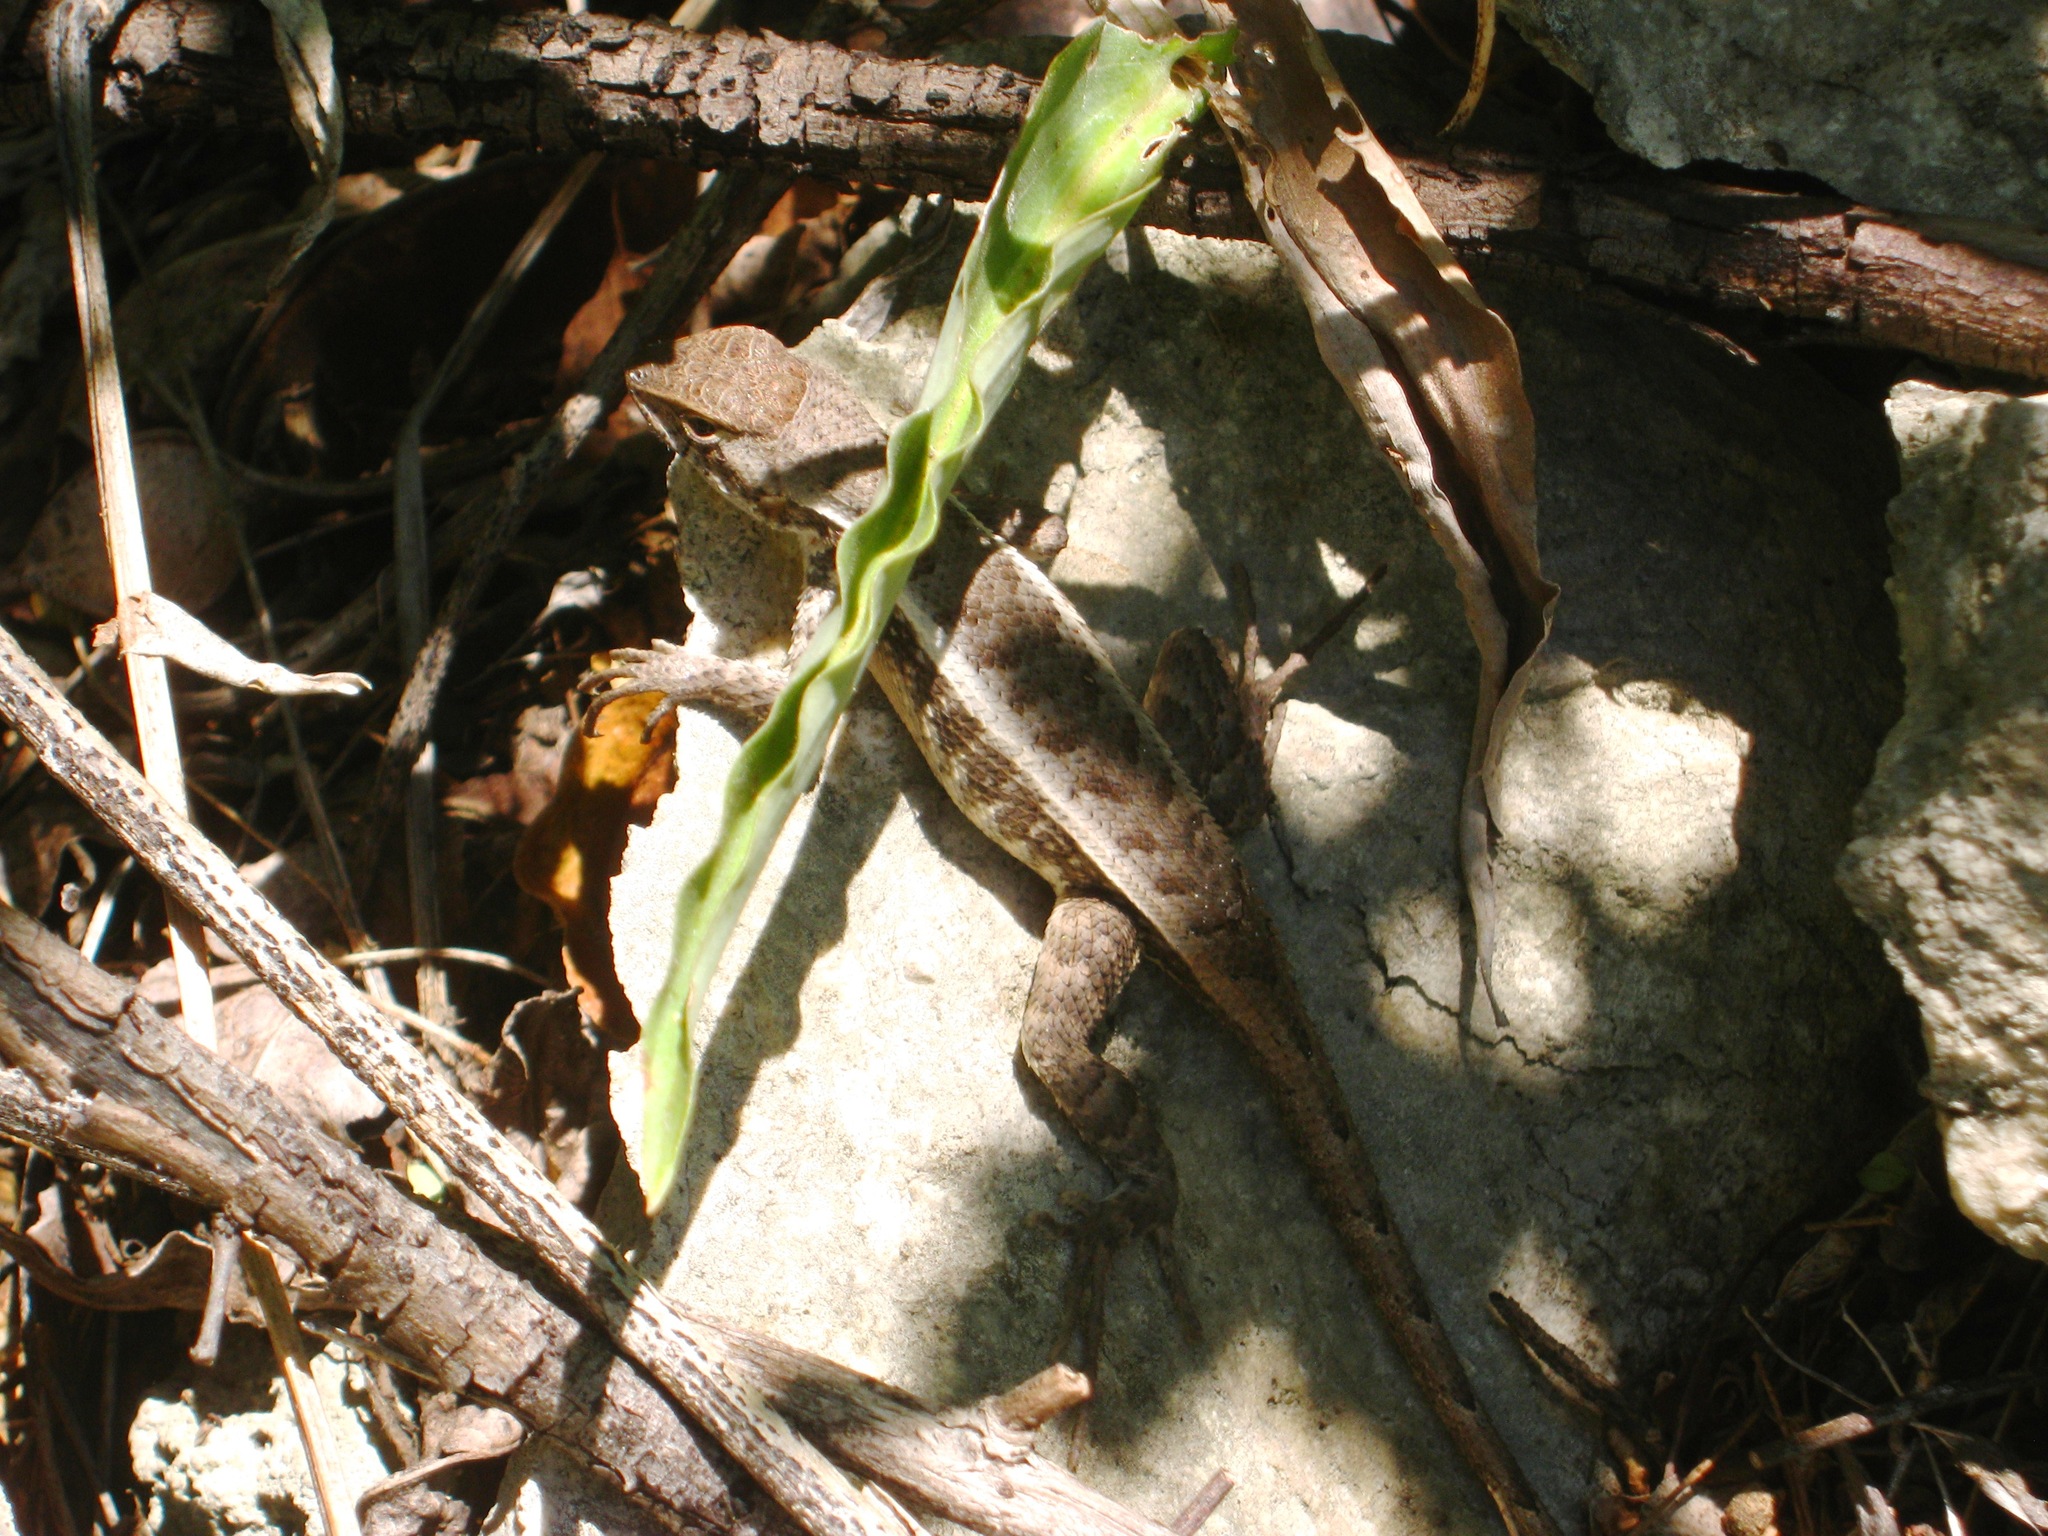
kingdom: Animalia
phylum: Chordata
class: Squamata
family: Phrynosomatidae
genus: Sceloporus
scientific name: Sceloporus chrysostictus
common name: Yellow-spotted spiny lizard
